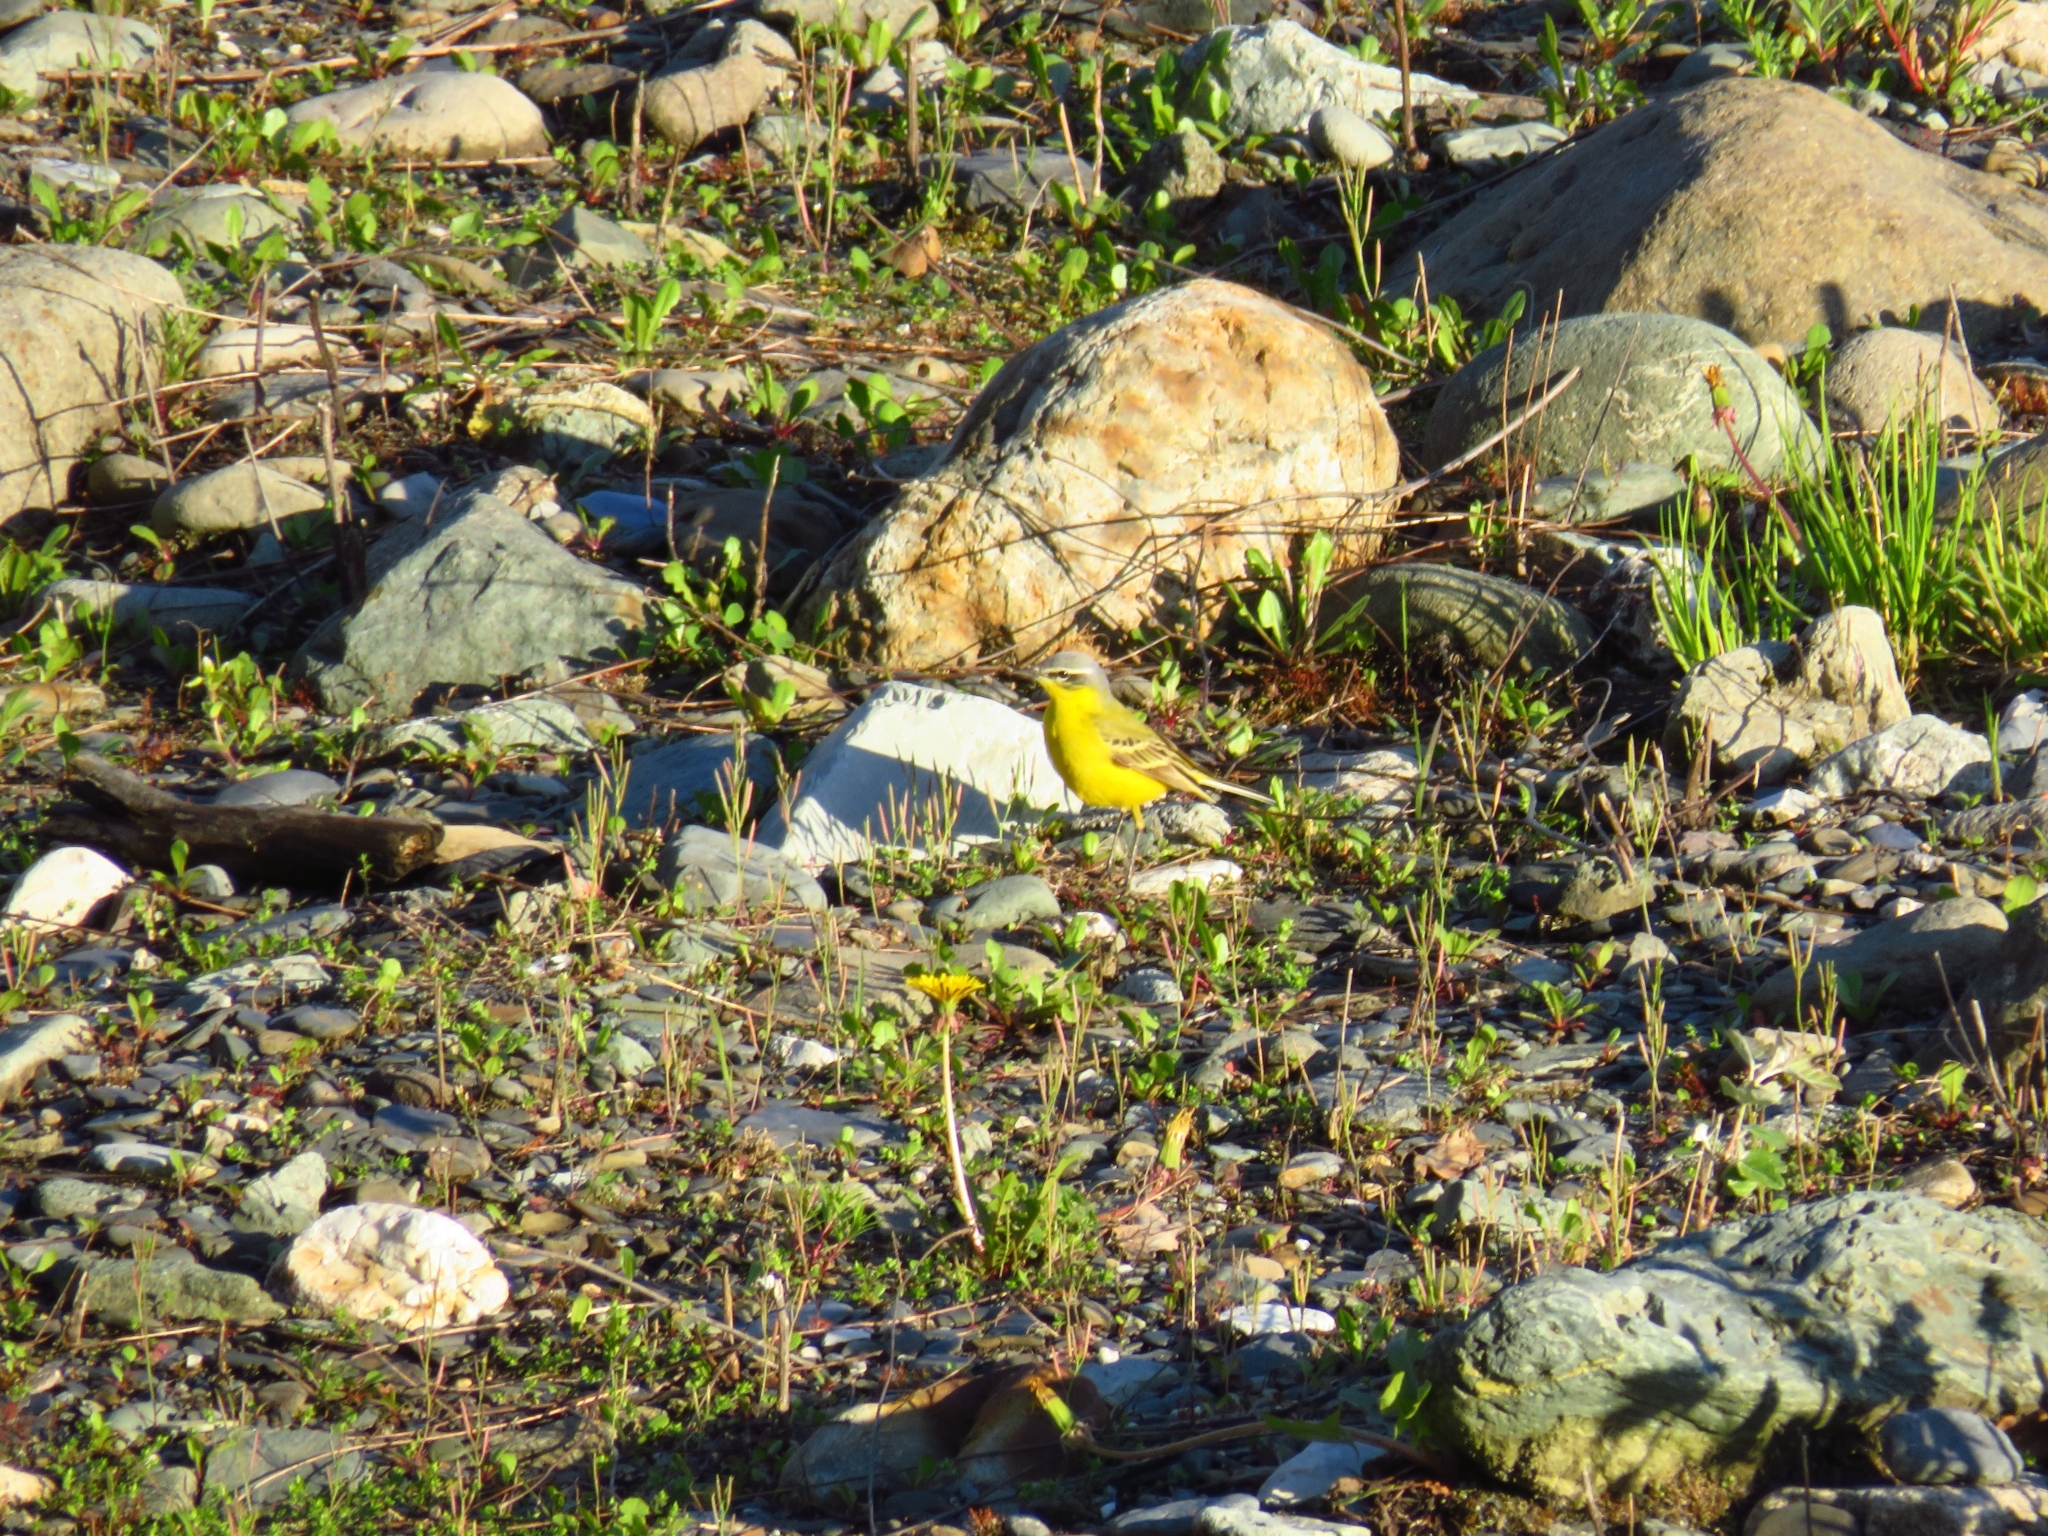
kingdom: Animalia
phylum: Chordata
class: Aves
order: Passeriformes
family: Motacillidae
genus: Motacilla
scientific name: Motacilla flava
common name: Western yellow wagtail
